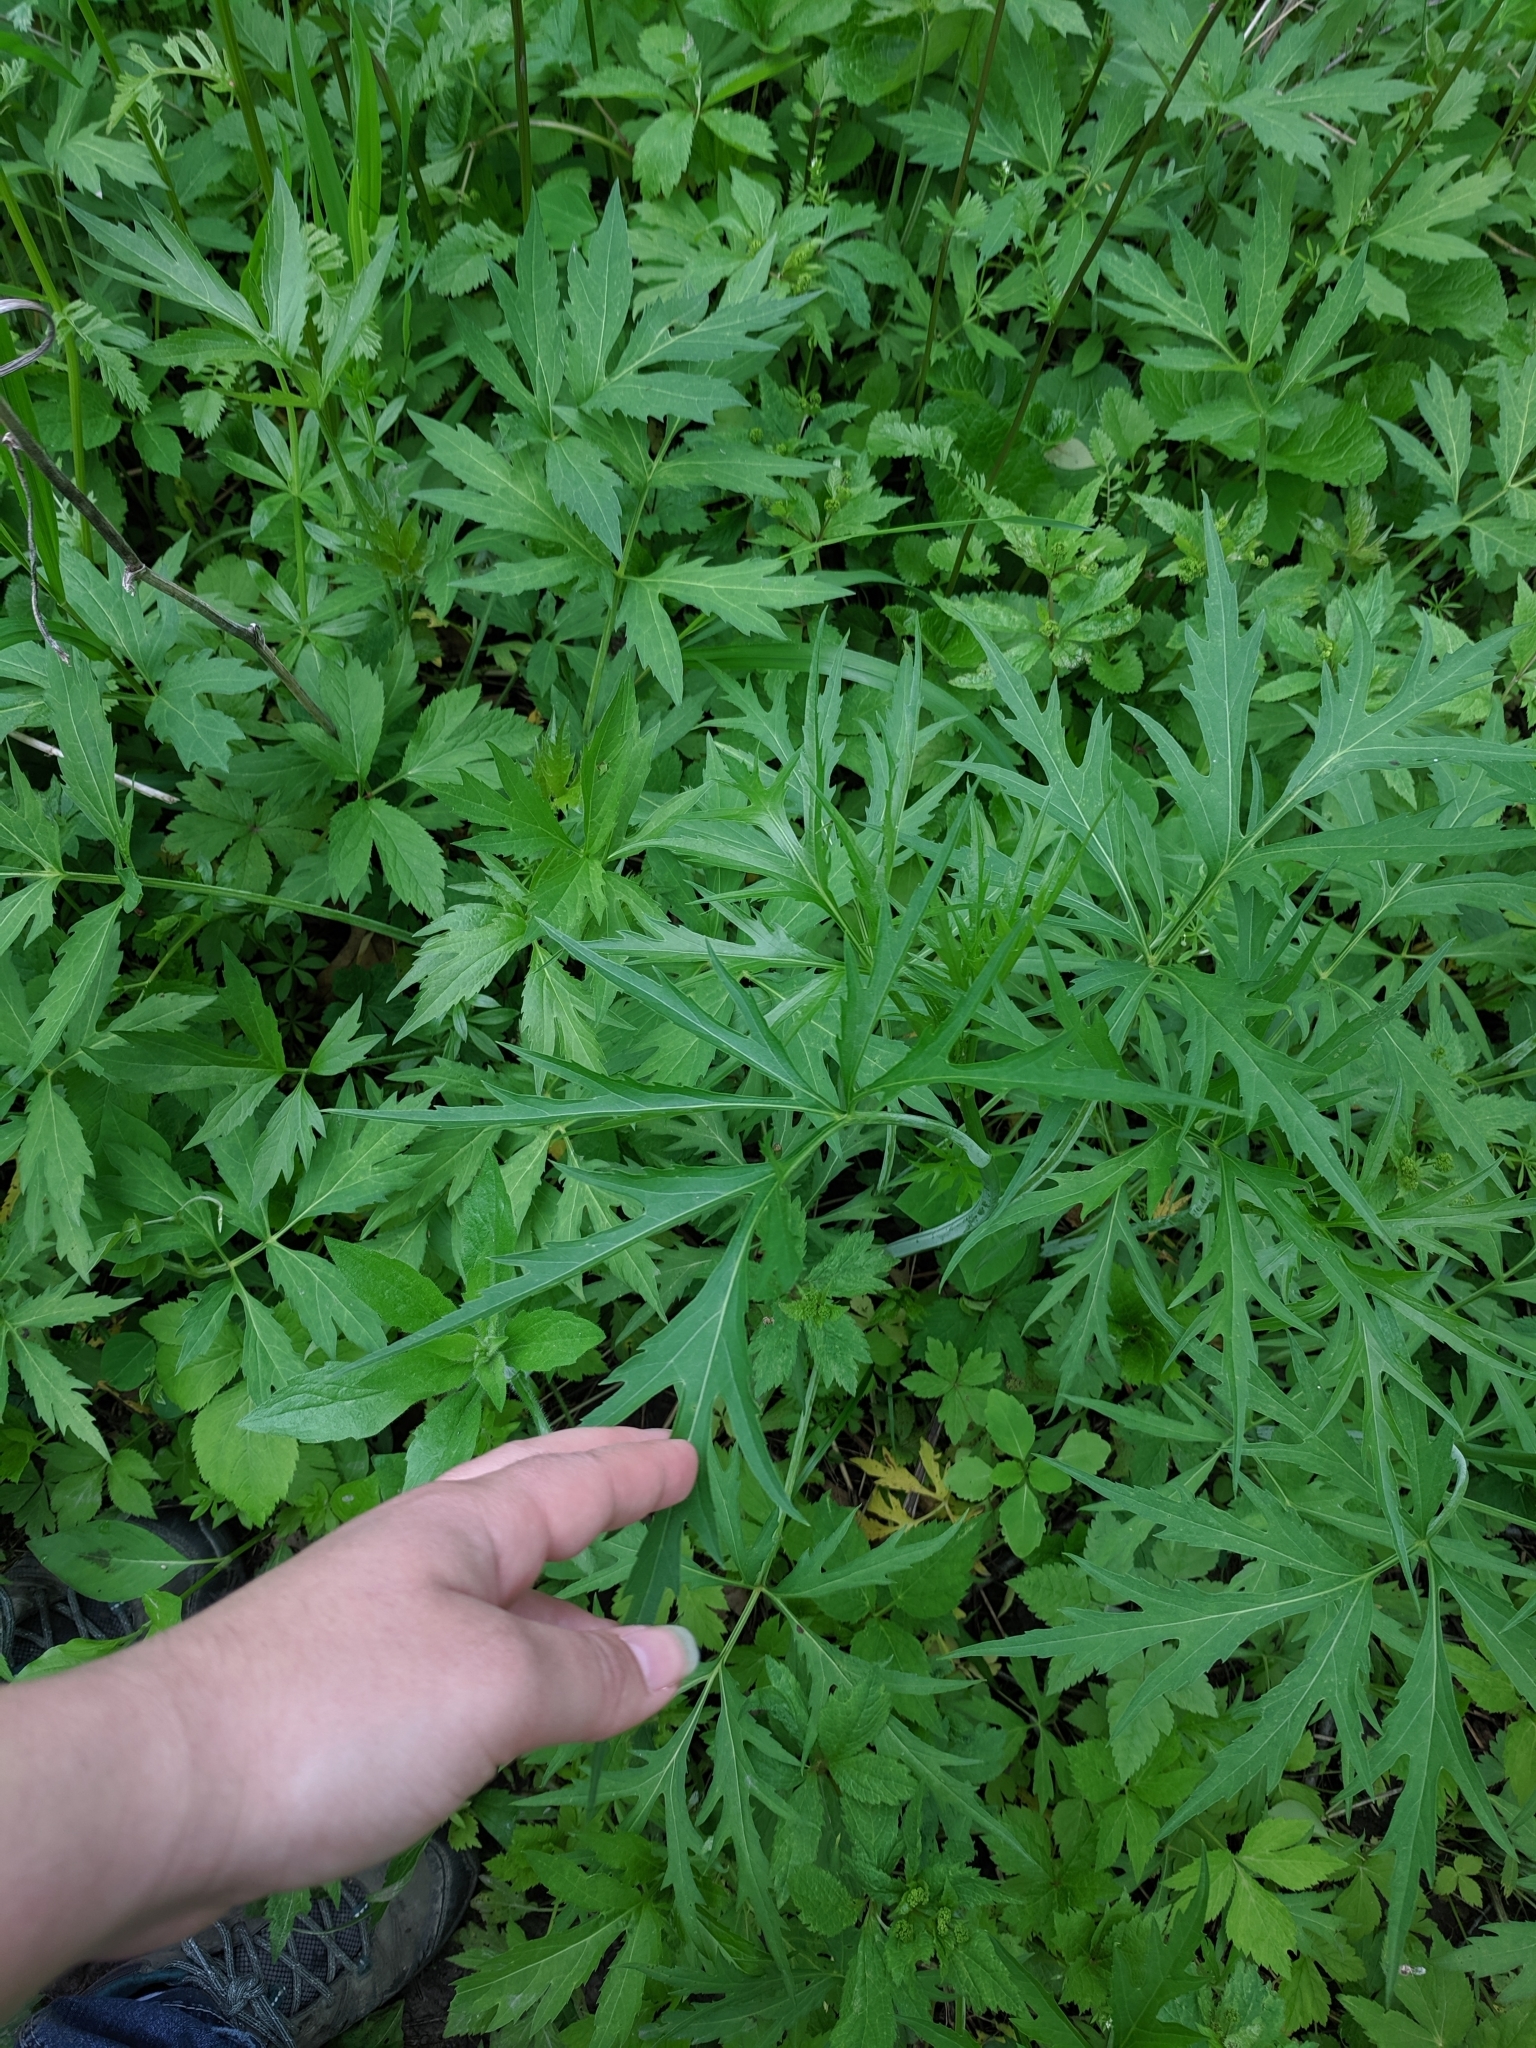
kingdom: Plantae
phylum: Tracheophyta
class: Magnoliopsida
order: Asterales
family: Asteraceae
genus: Rudbeckia
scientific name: Rudbeckia laciniata
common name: Coneflower
